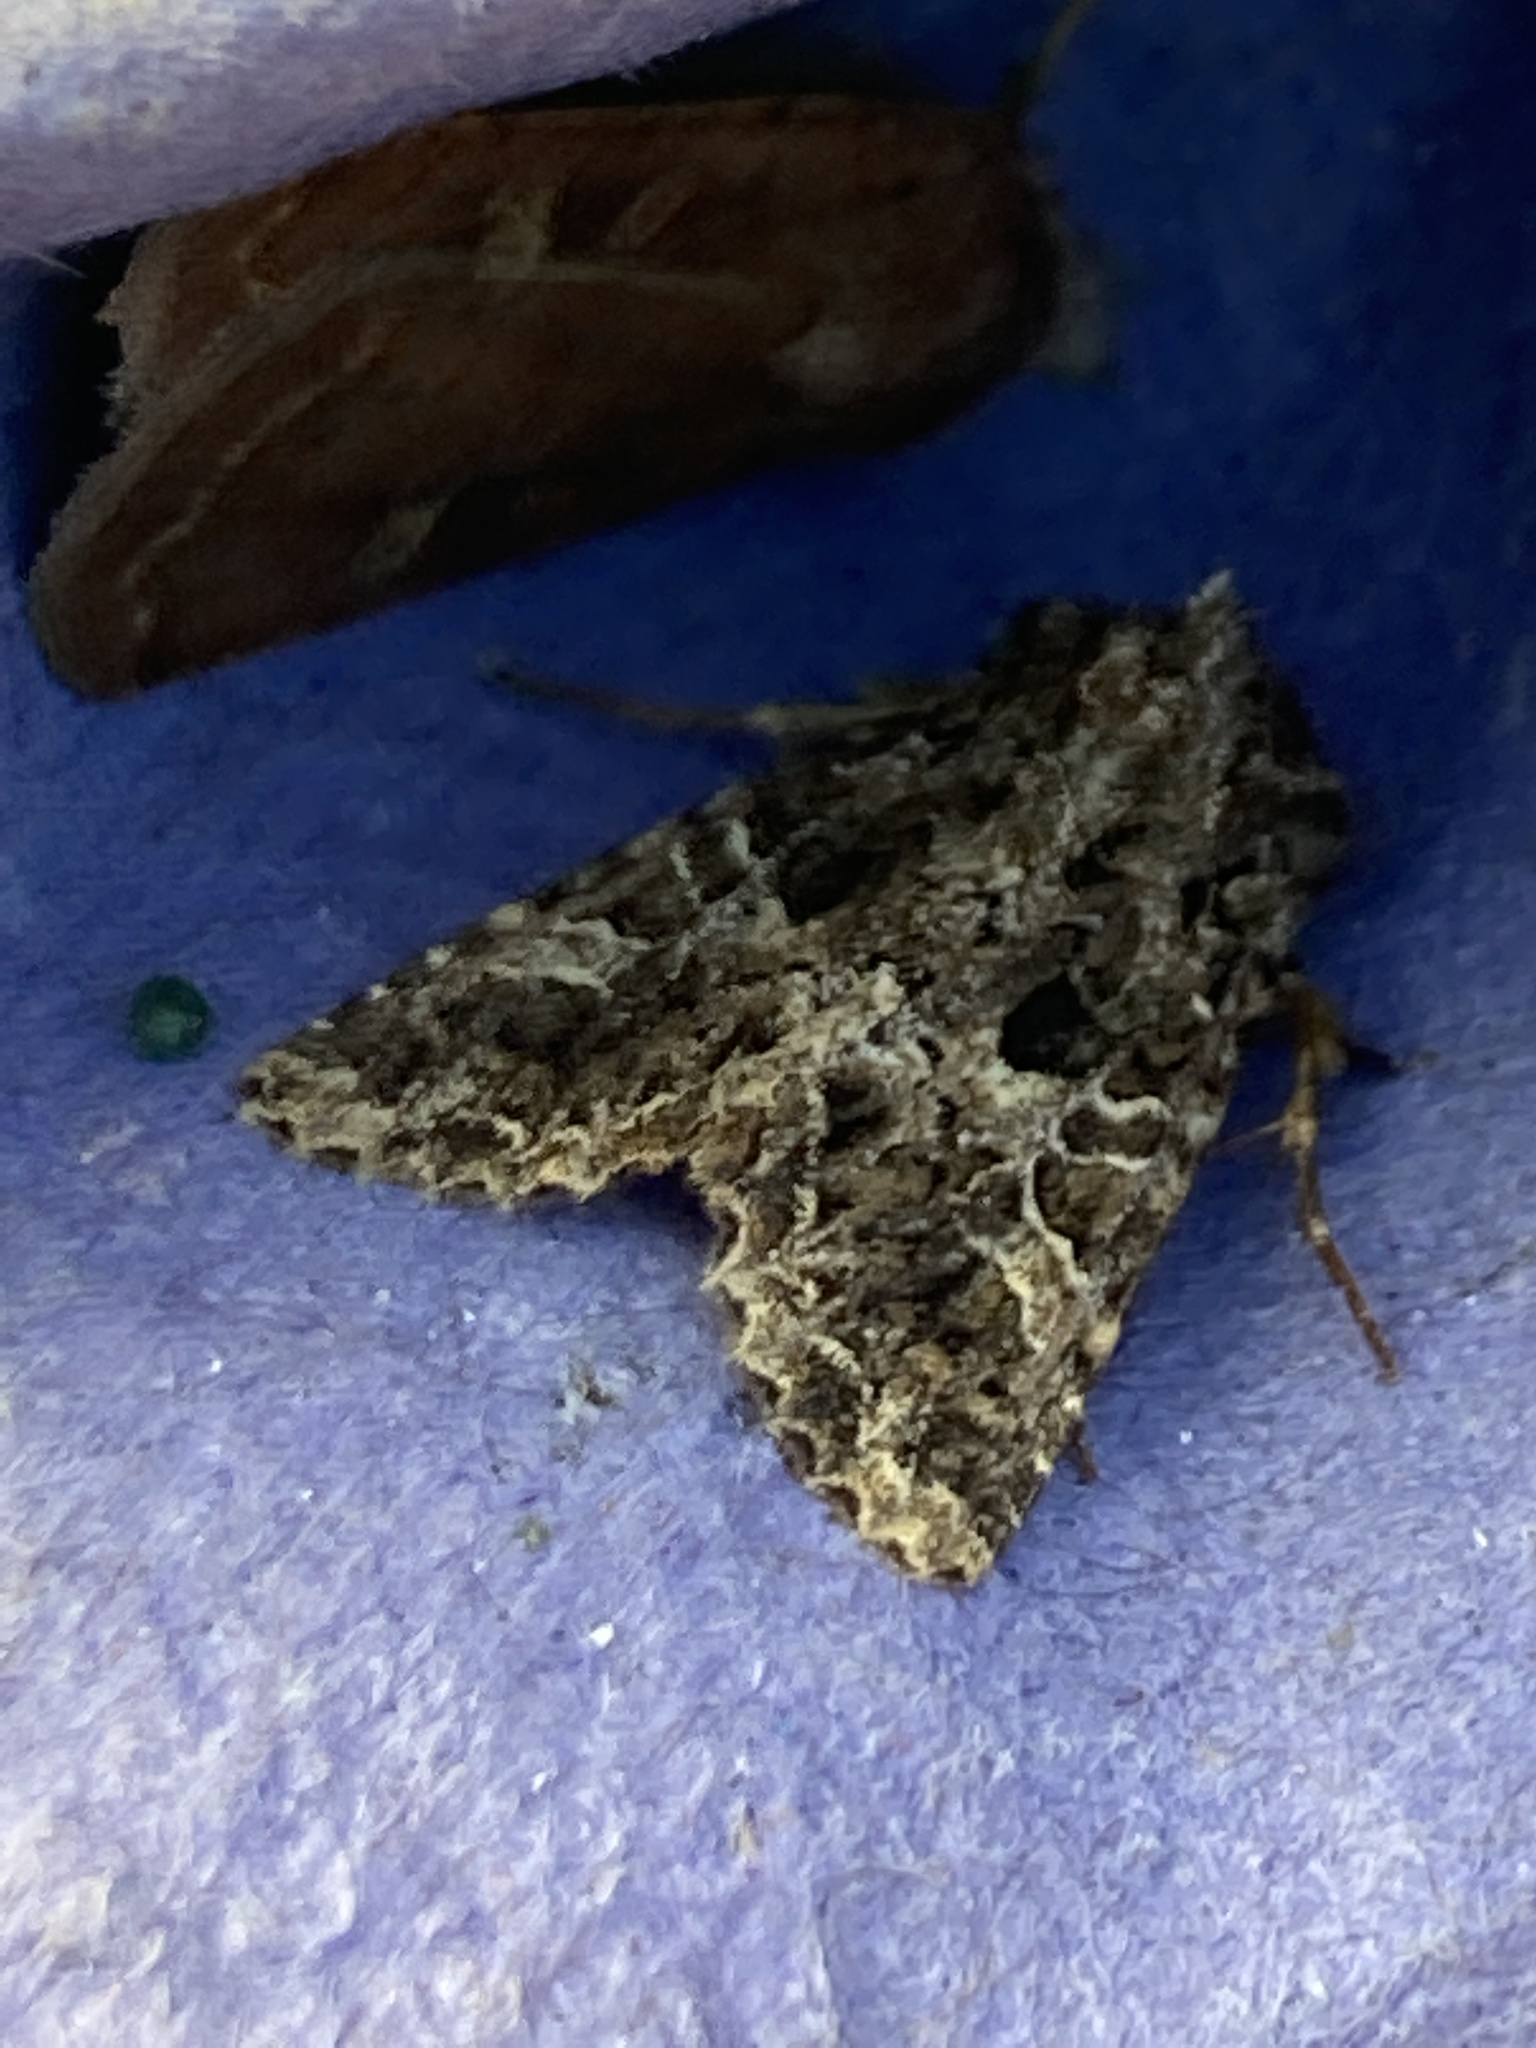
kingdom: Animalia
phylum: Arthropoda
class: Insecta
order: Lepidoptera
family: Noctuidae
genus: Hadena
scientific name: Hadena bicruris
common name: Lychnis
